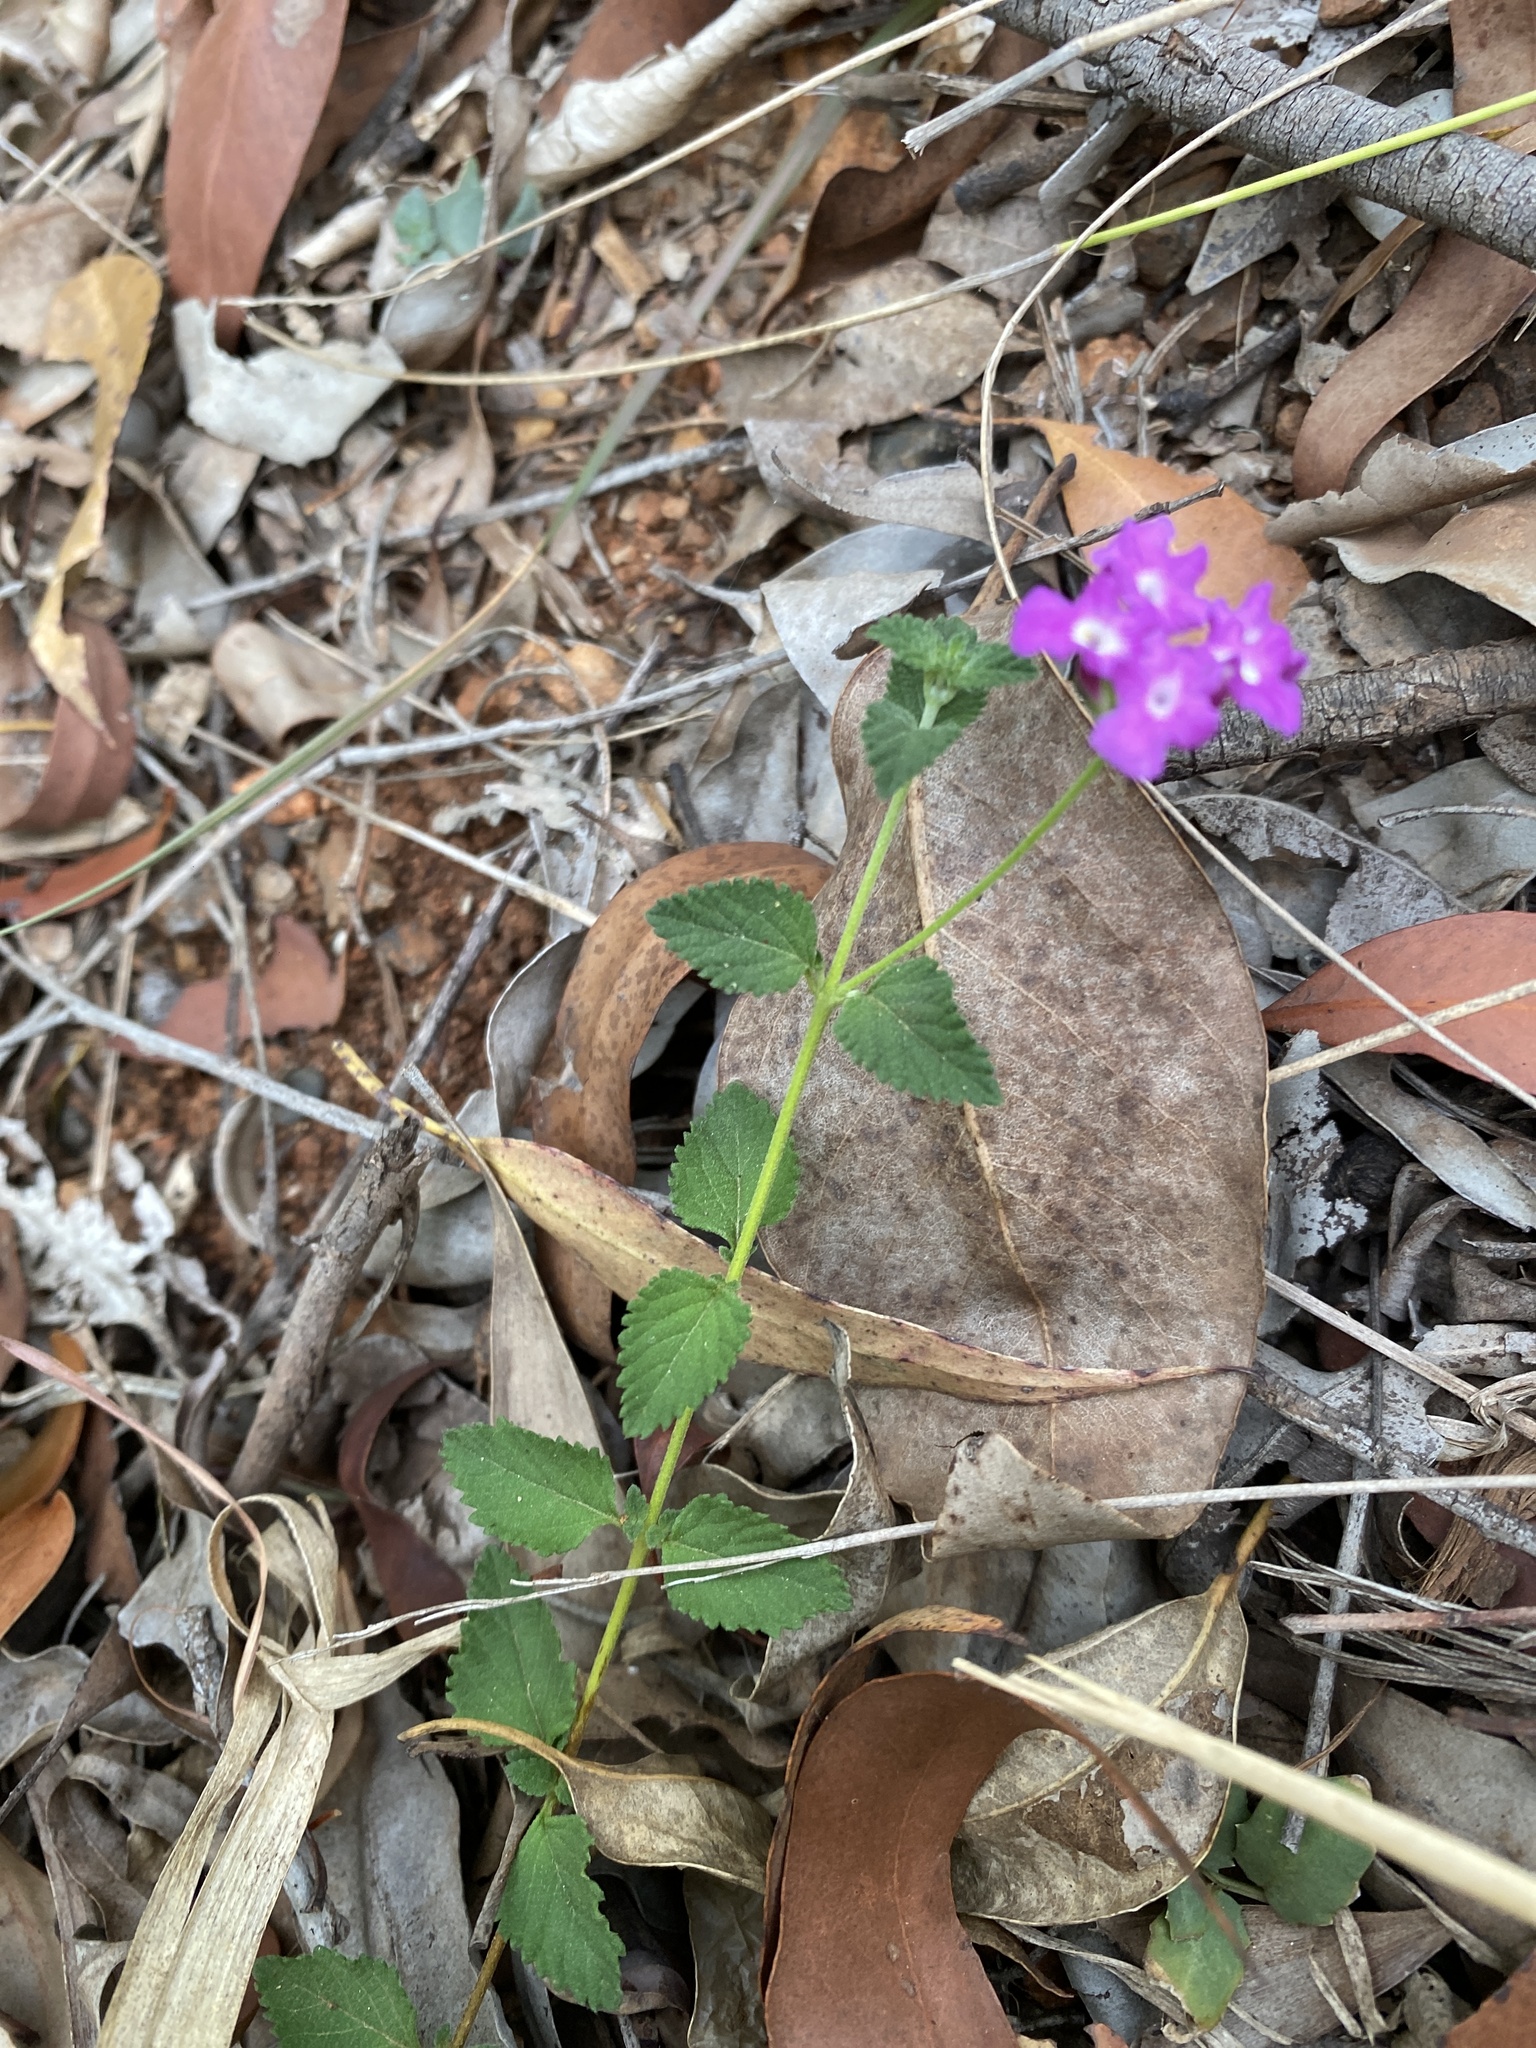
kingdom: Plantae
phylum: Tracheophyta
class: Magnoliopsida
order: Lamiales
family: Verbenaceae
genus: Lantana
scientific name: Lantana montevidensis
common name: Trailing shrubverbena
